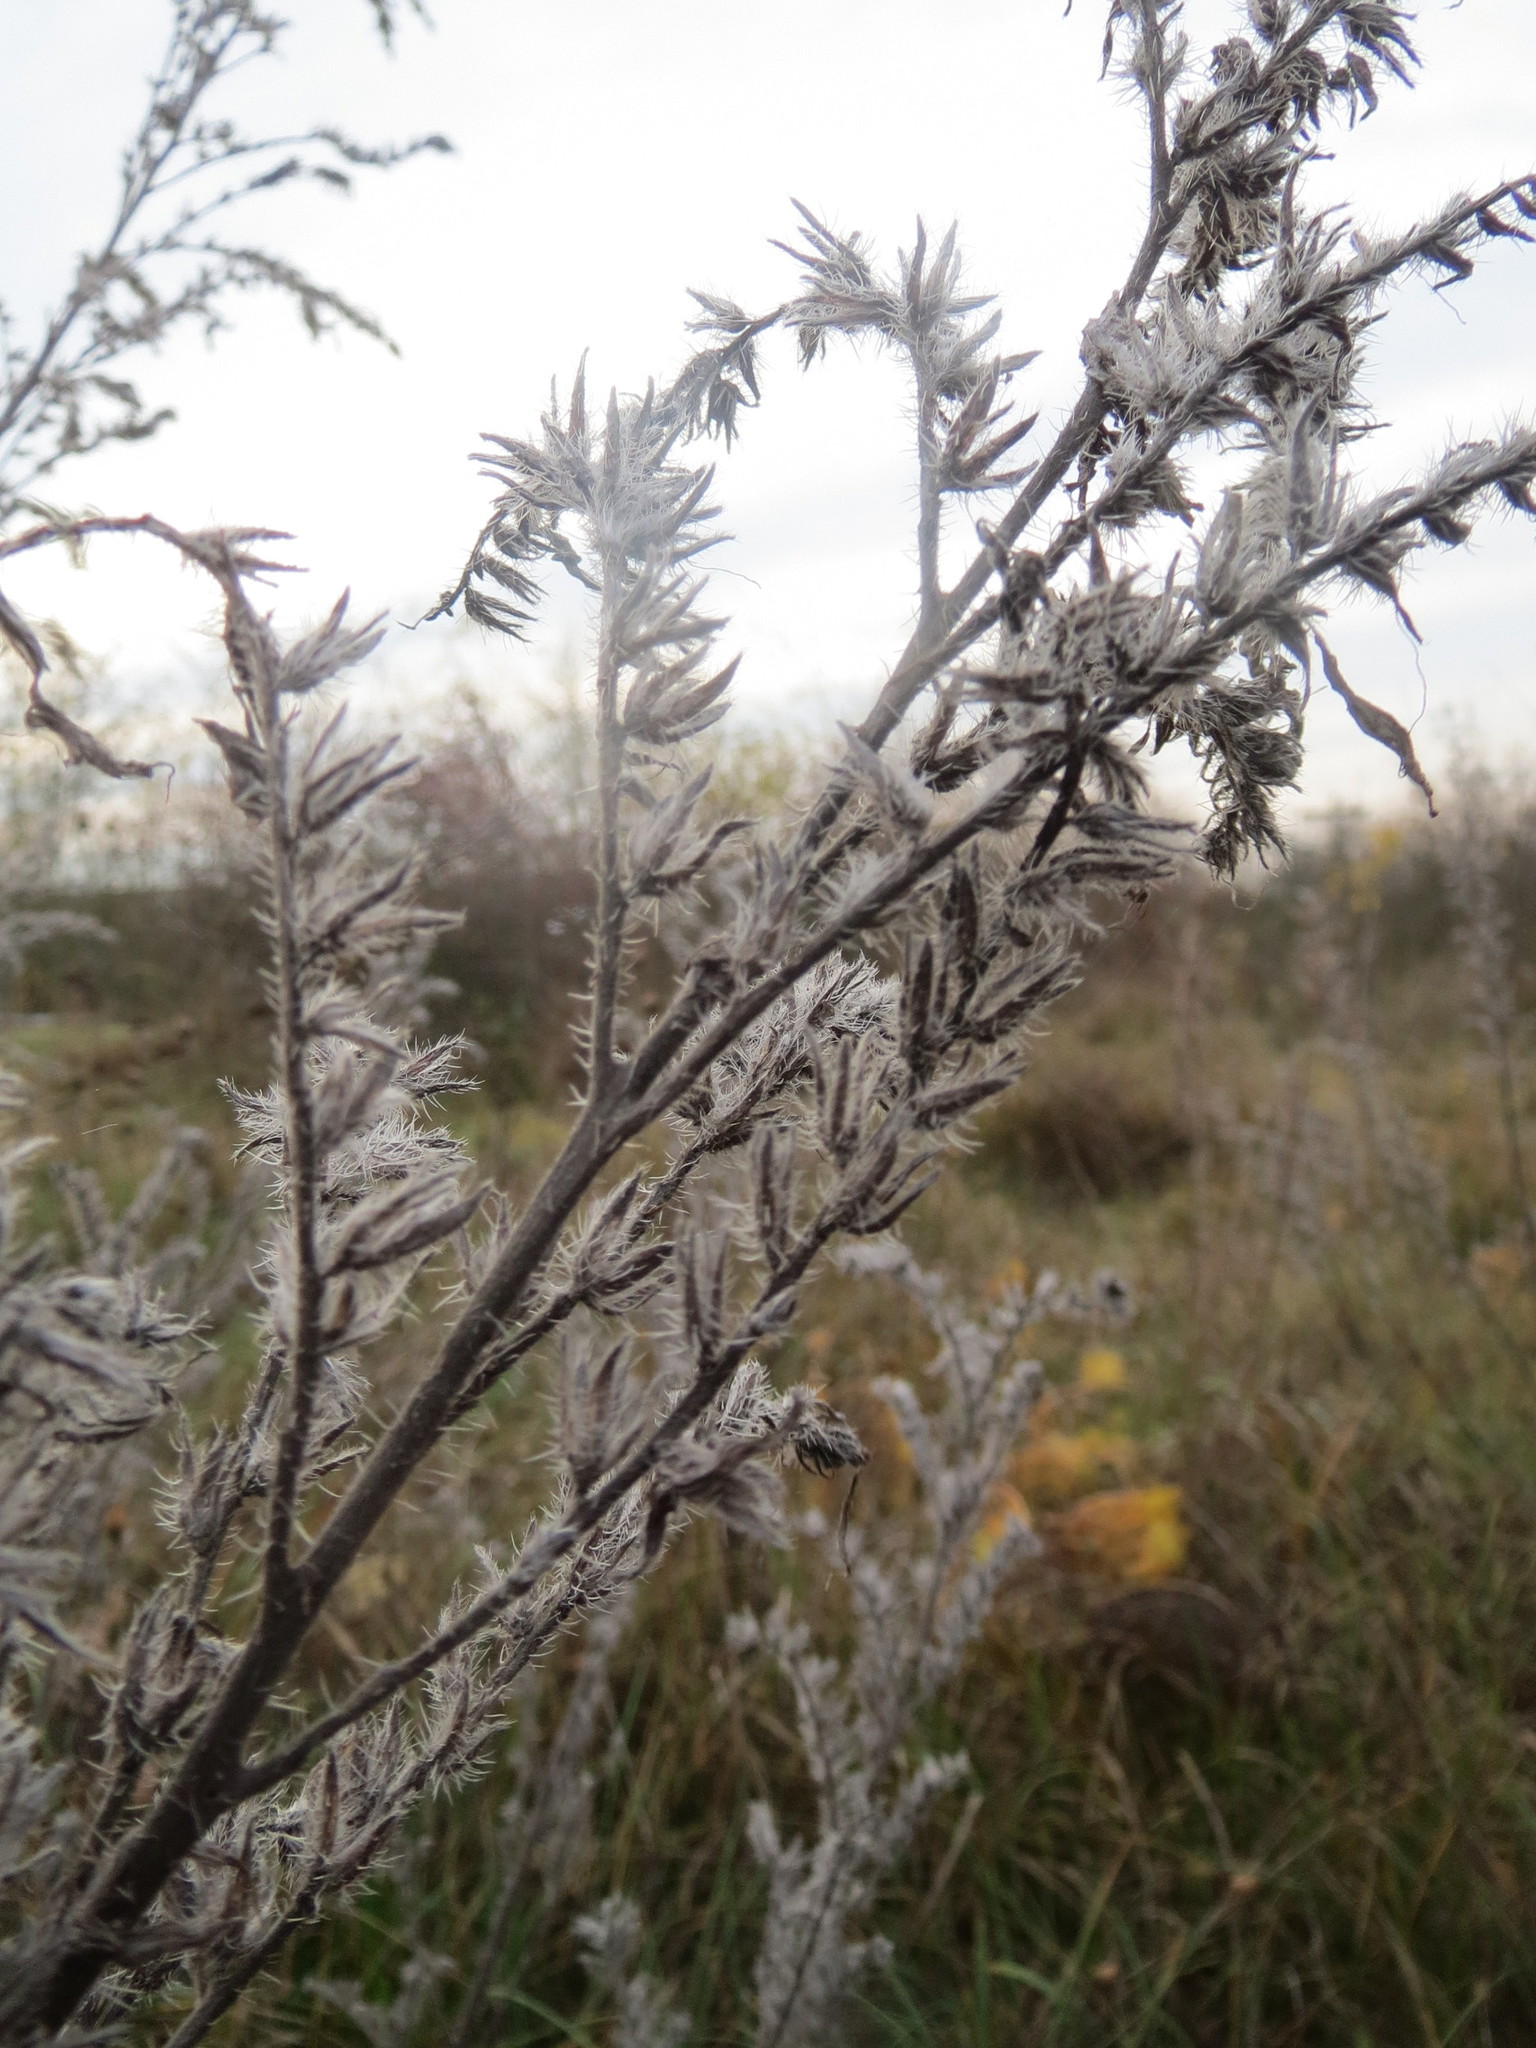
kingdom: Plantae
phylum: Tracheophyta
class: Magnoliopsida
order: Boraginales
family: Boraginaceae
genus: Echium
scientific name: Echium vulgare
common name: Common viper's bugloss
